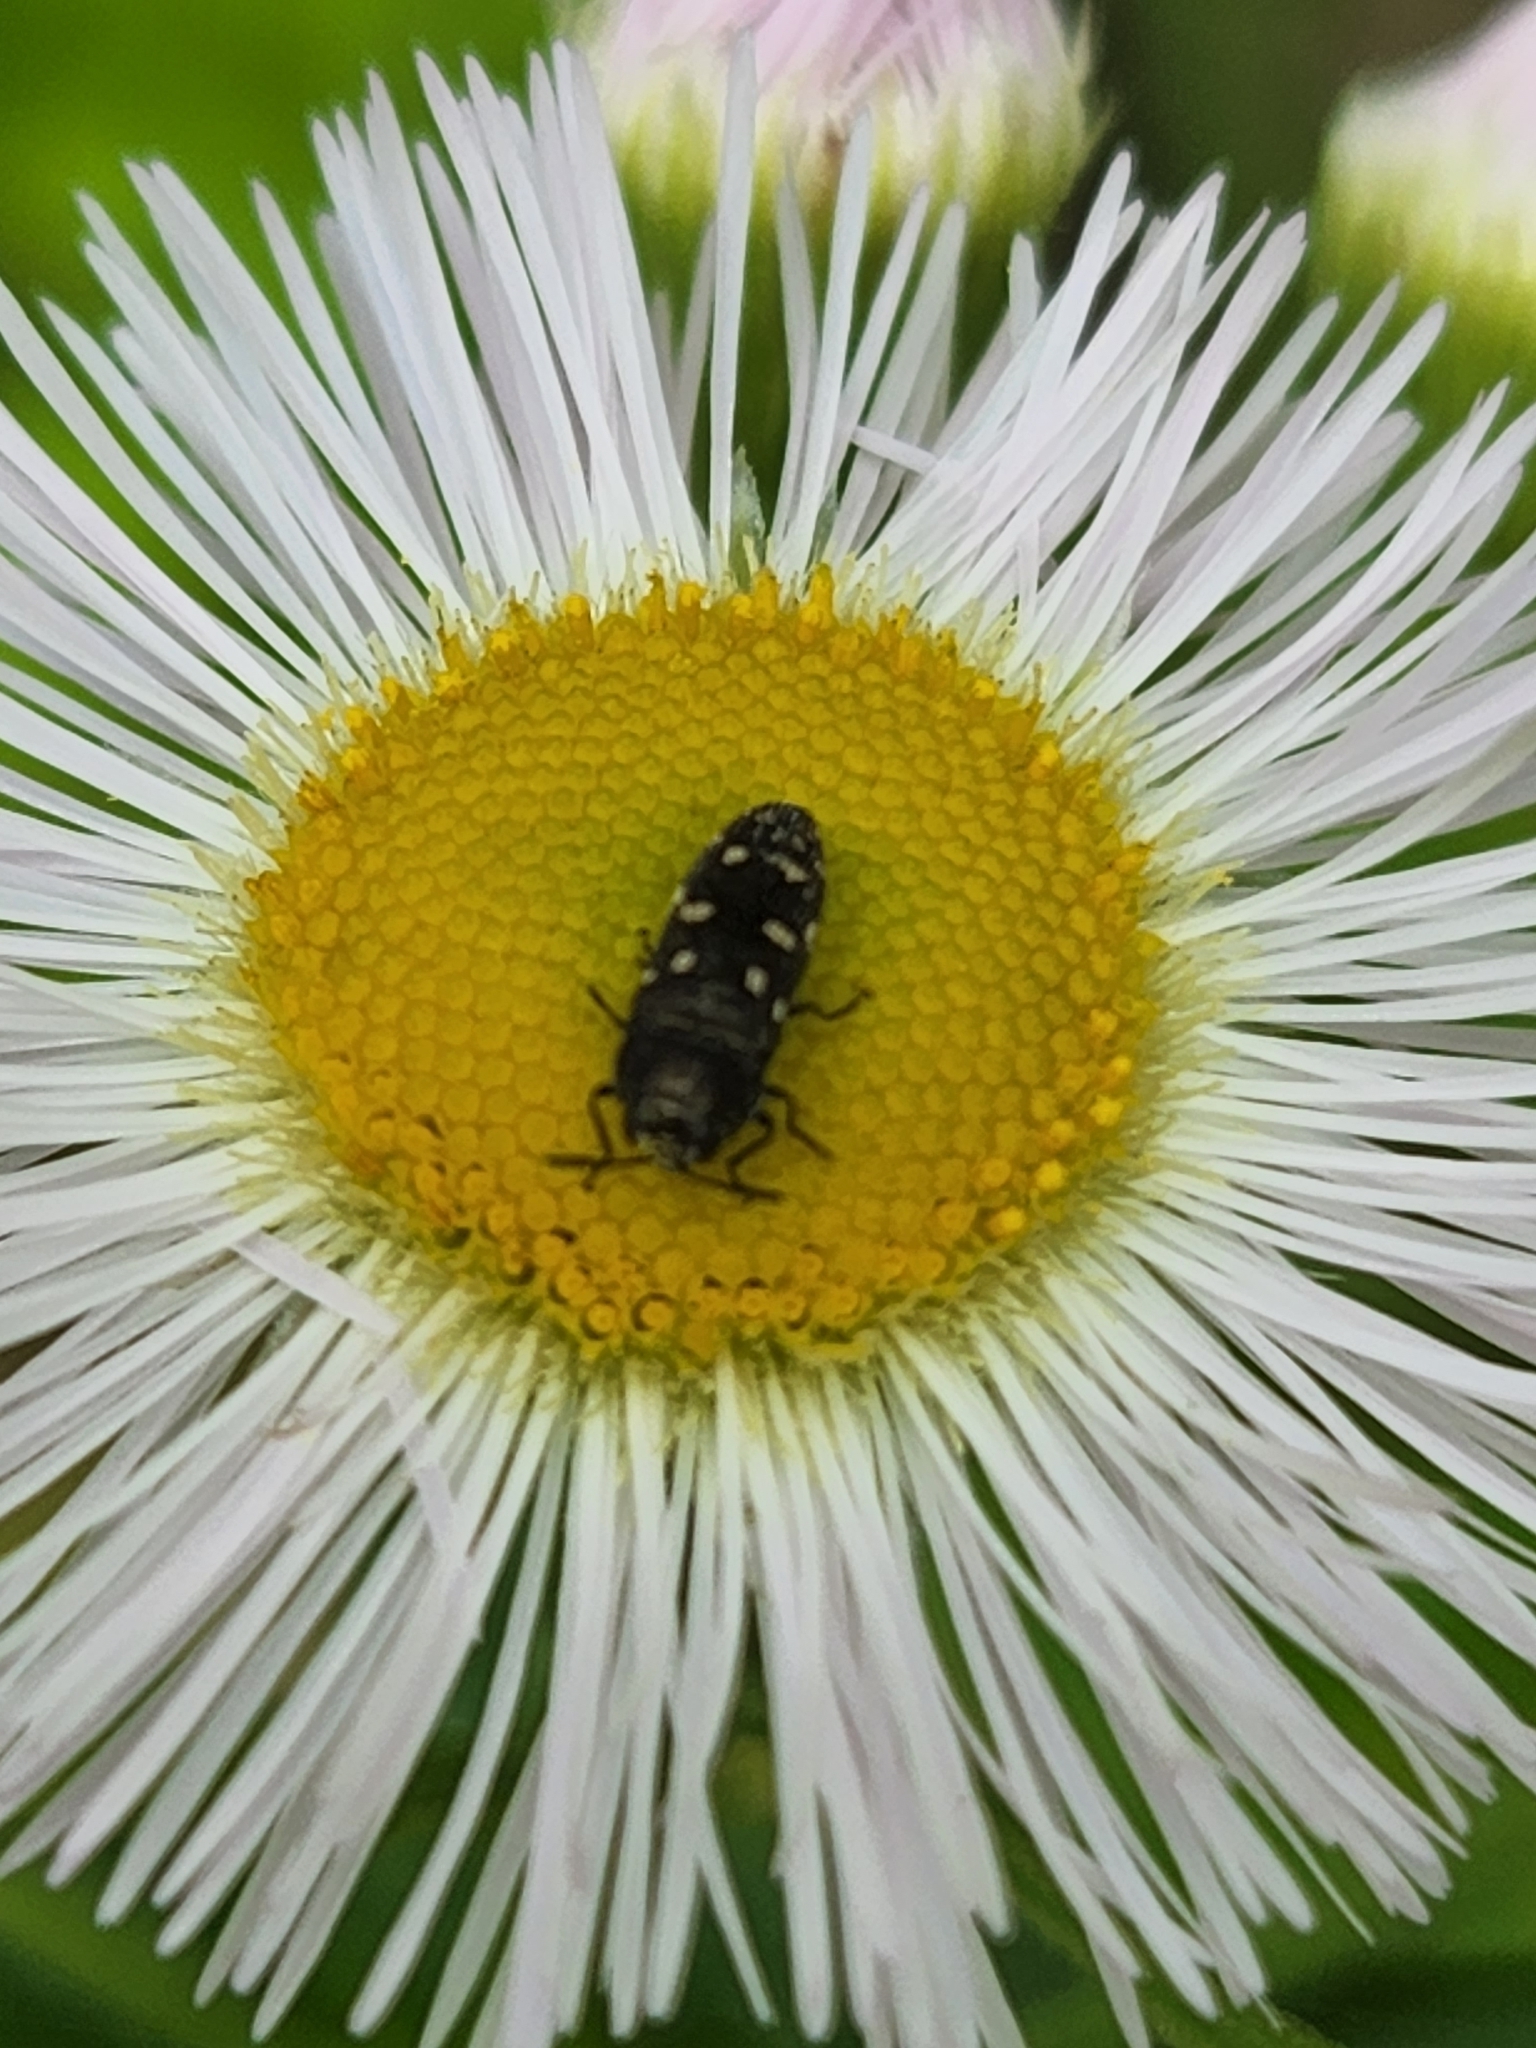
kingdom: Animalia
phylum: Arthropoda
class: Insecta
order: Coleoptera
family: Buprestidae
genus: Acmaeodera
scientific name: Acmaeodera tubulus
